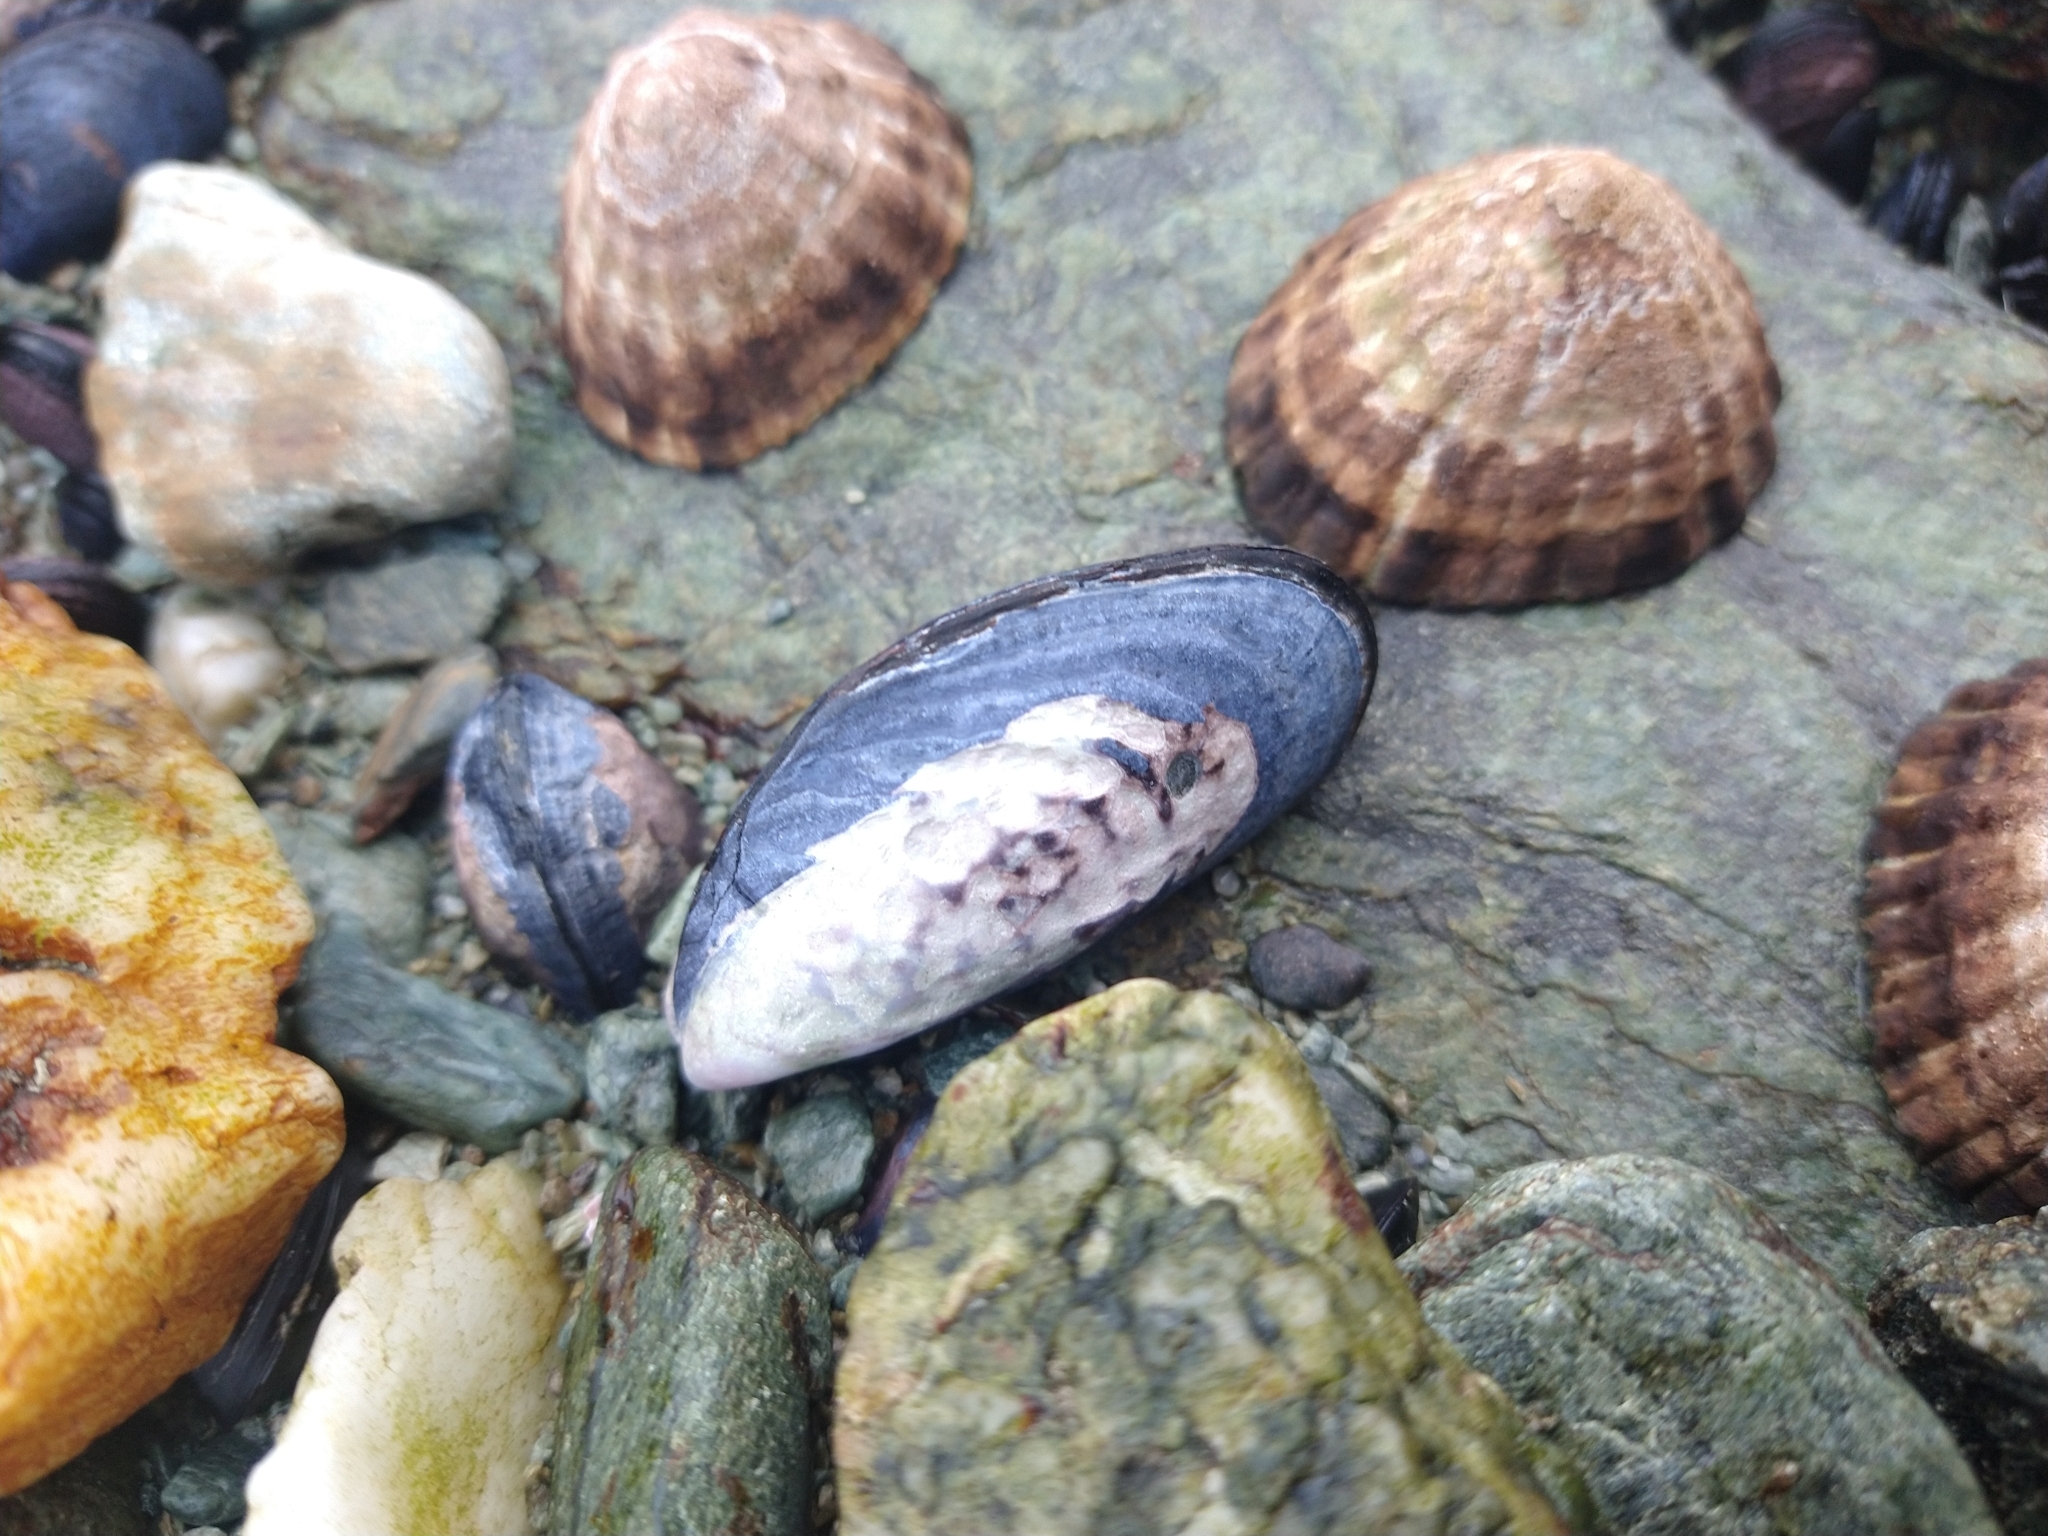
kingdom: Animalia
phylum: Mollusca
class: Bivalvia
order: Mytilida
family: Mytilidae
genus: Mytilus
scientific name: Mytilus chilensis
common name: Chilean mussel
